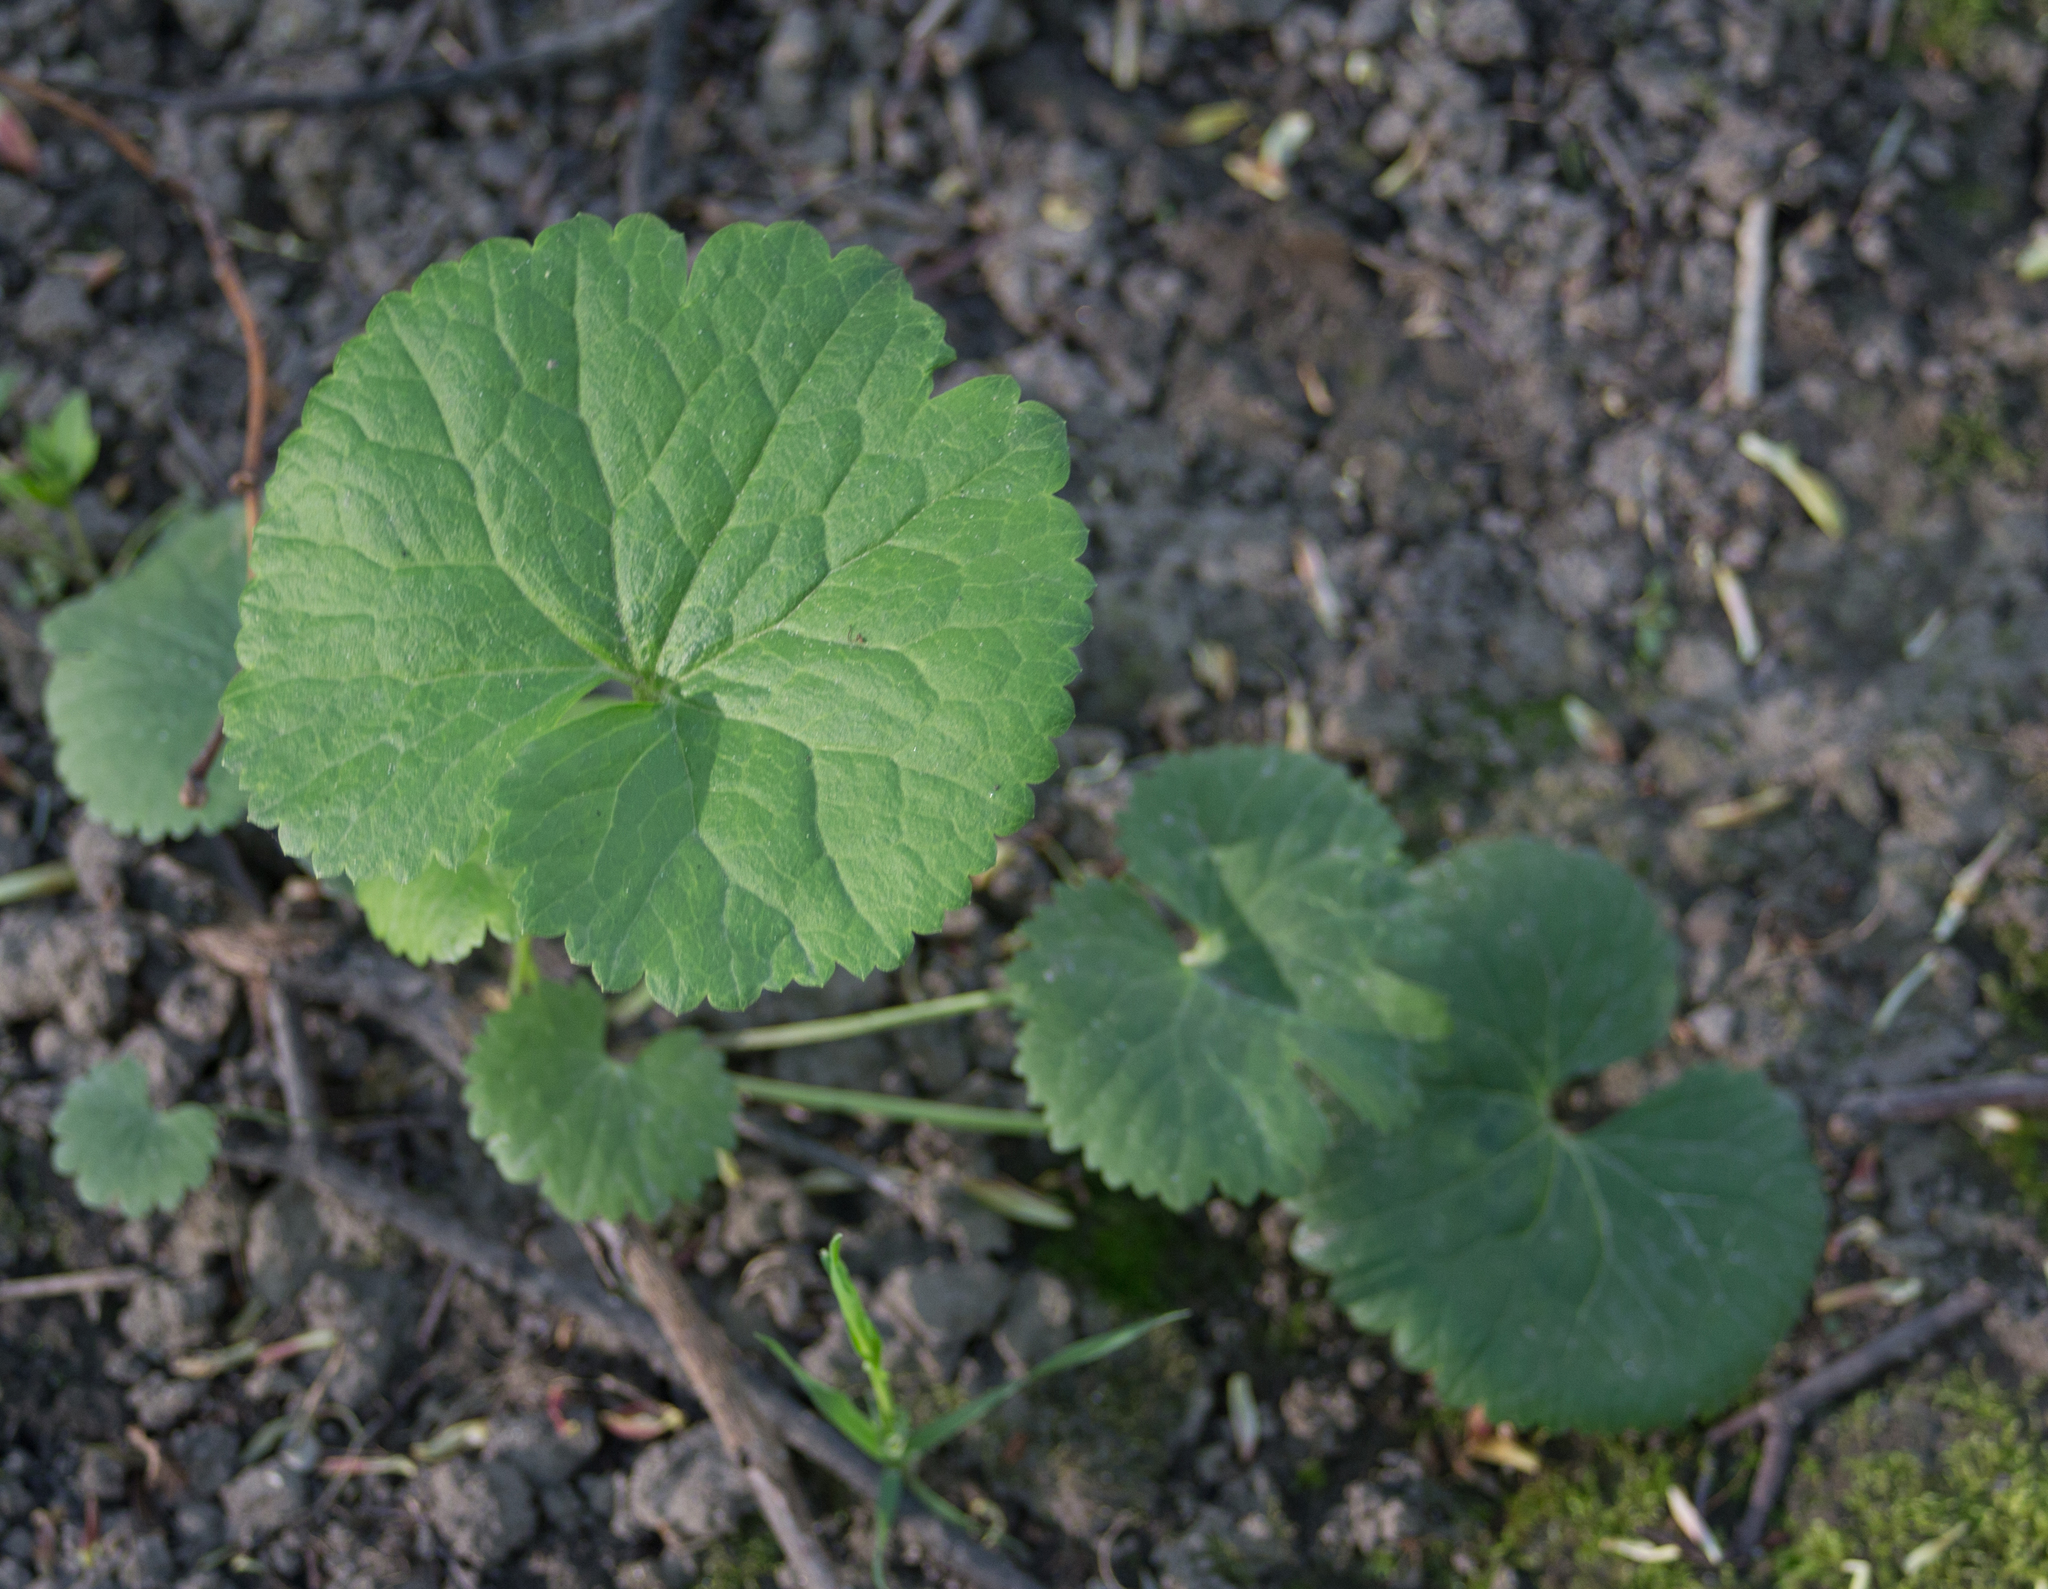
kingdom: Plantae
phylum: Tracheophyta
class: Magnoliopsida
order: Ranunculales
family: Ranunculaceae
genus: Ranunculus
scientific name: Ranunculus cassubicus
